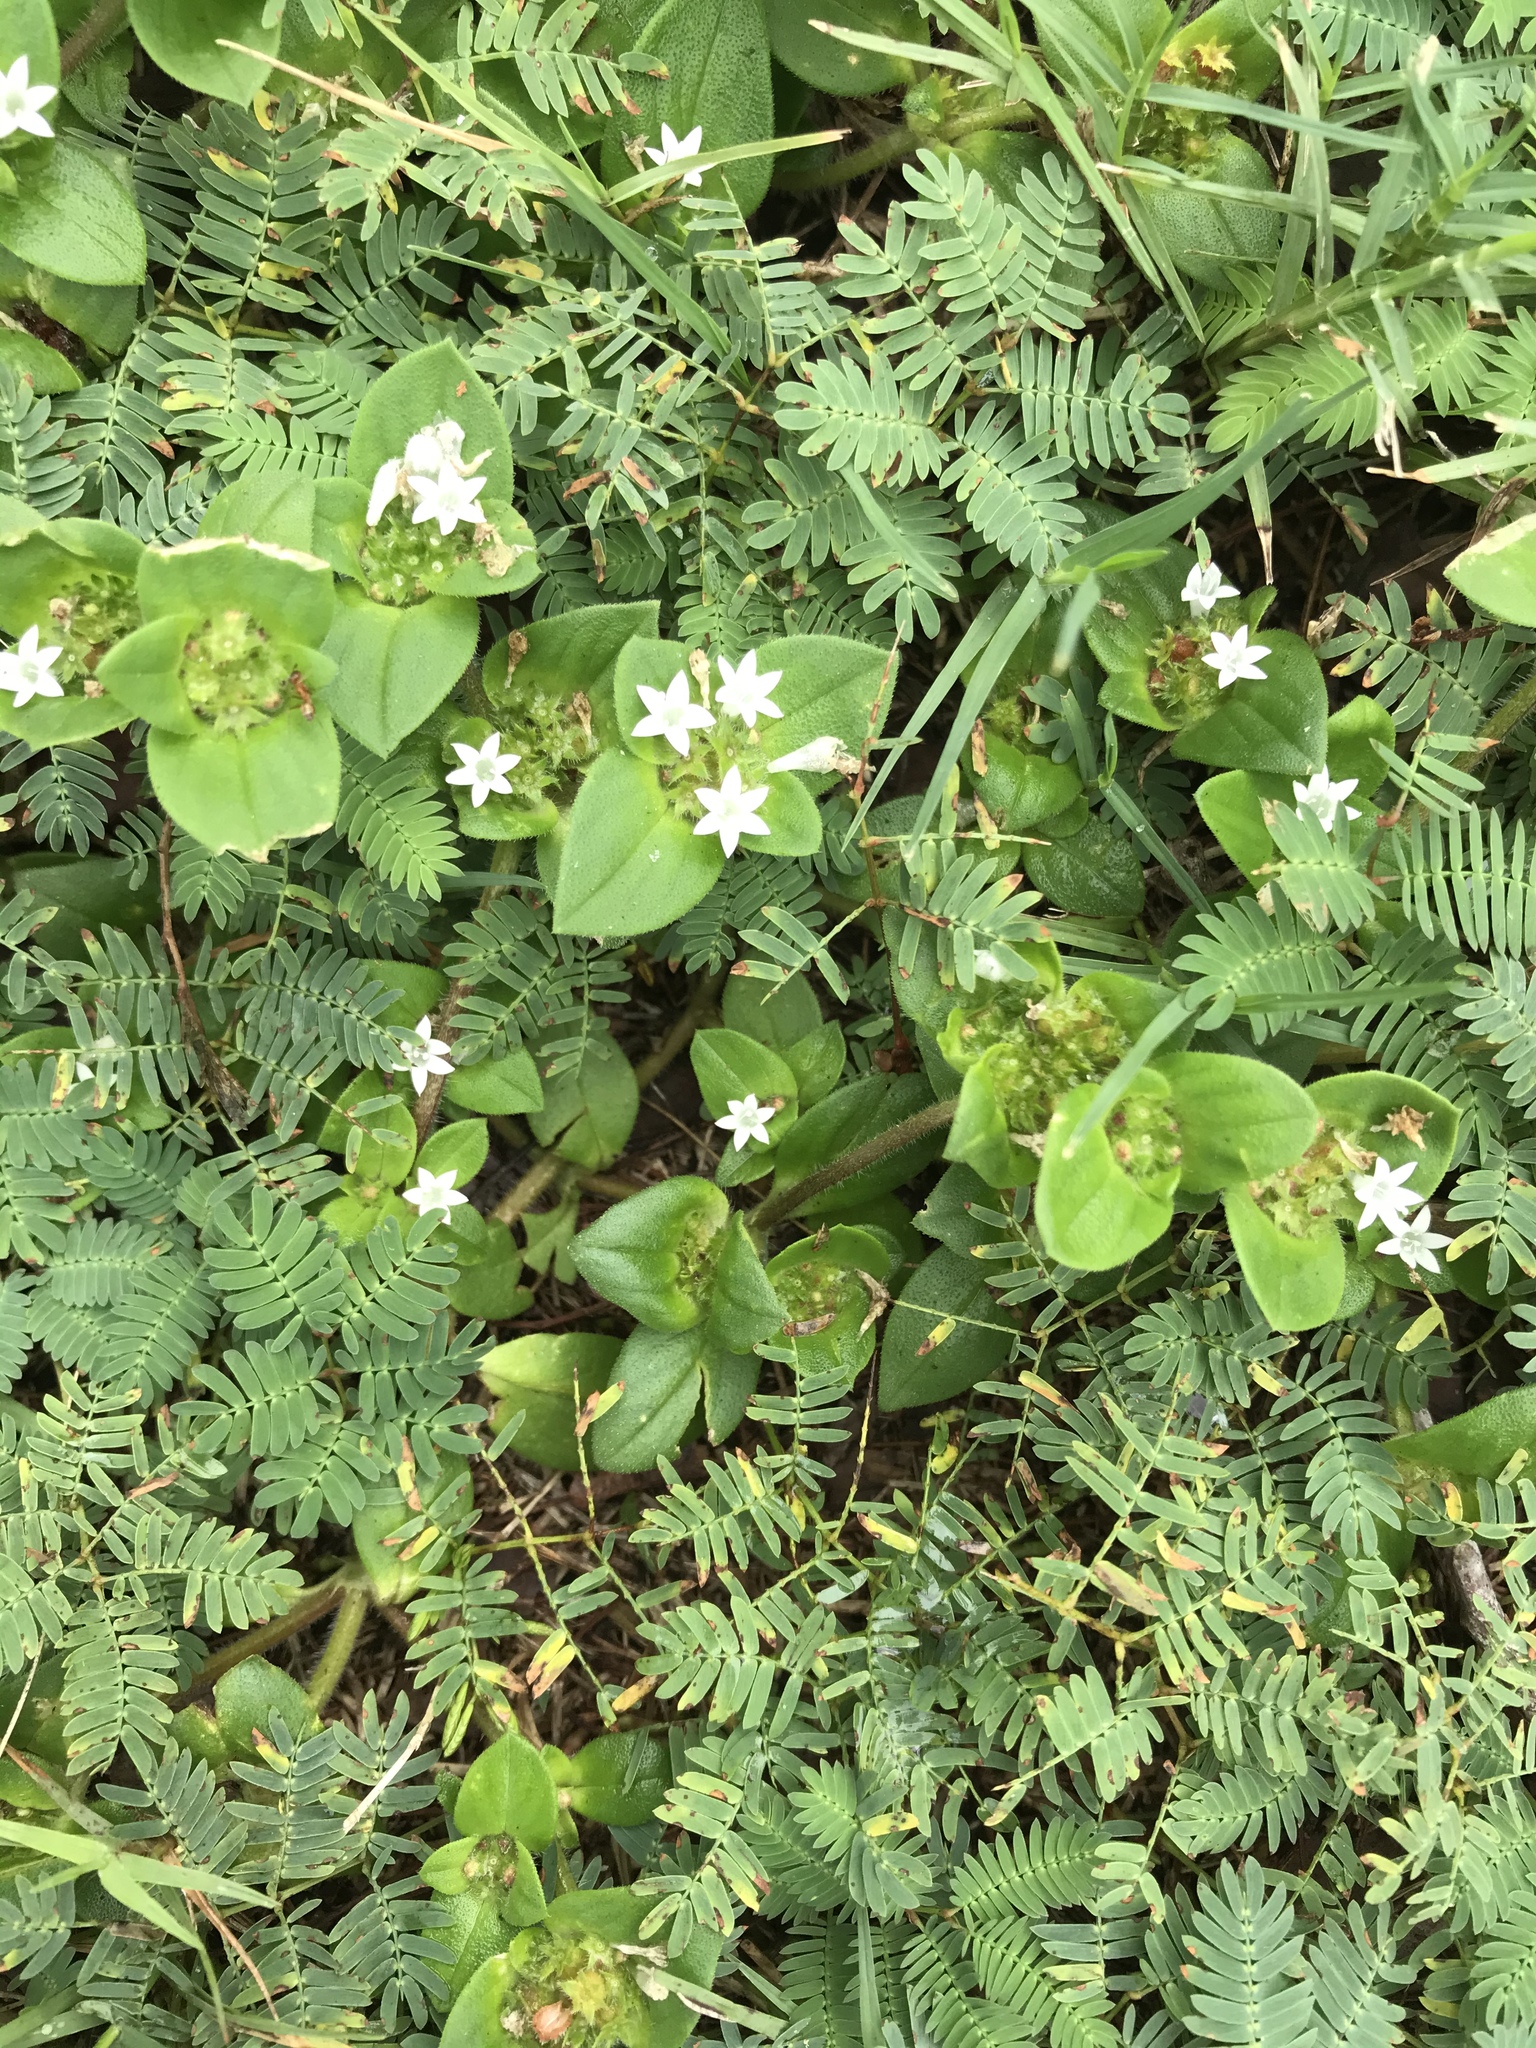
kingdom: Plantae
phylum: Tracheophyta
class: Magnoliopsida
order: Gentianales
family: Rubiaceae
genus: Richardia
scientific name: Richardia scabra
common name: Rough mexican clover
